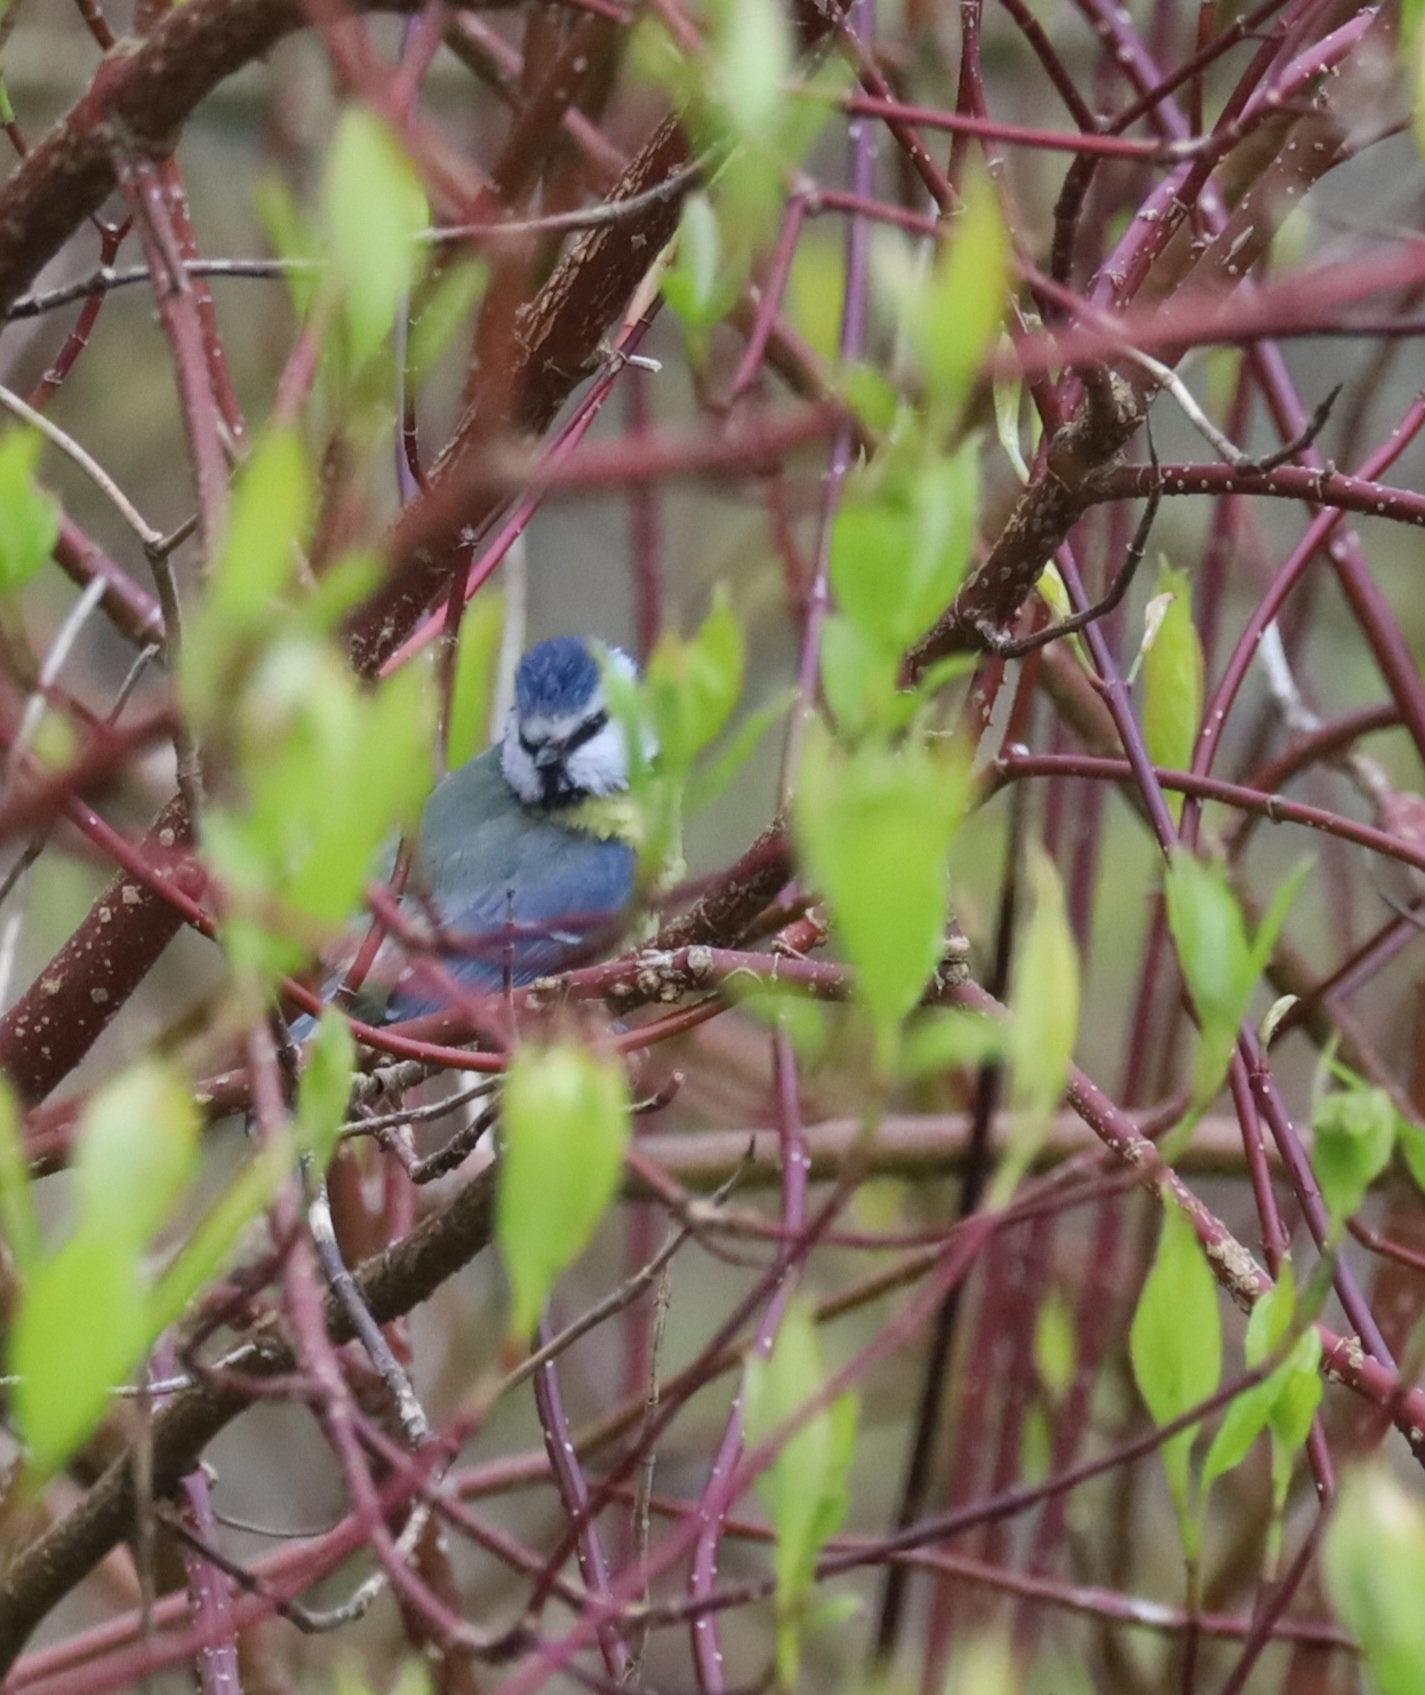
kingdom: Animalia
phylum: Chordata
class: Aves
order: Passeriformes
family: Paridae
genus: Cyanistes
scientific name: Cyanistes caeruleus
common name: Eurasian blue tit
